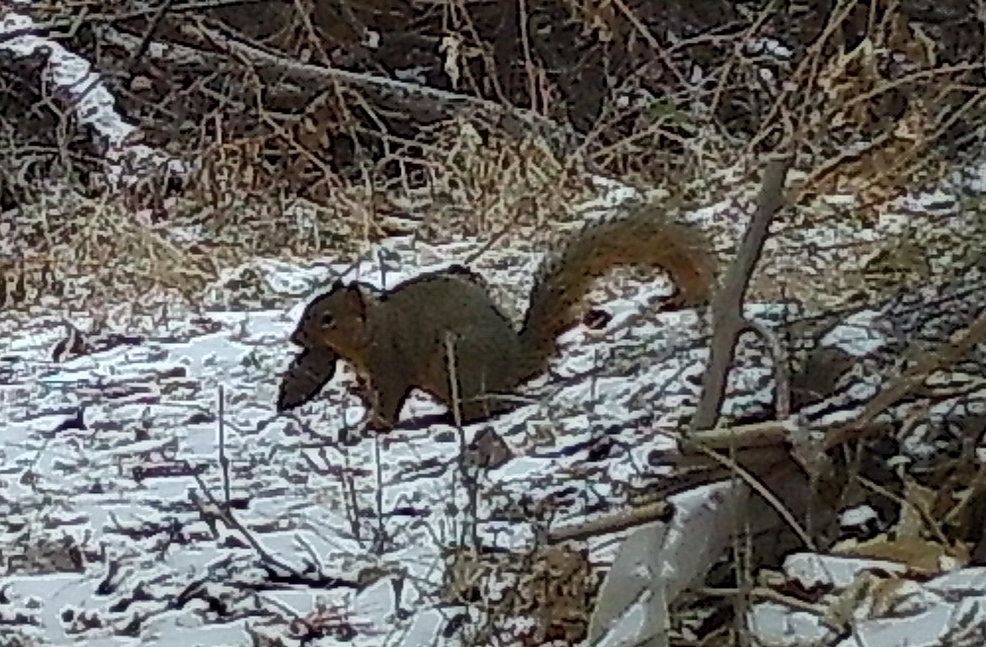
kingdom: Animalia
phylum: Chordata
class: Mammalia
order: Rodentia
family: Sciuridae
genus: Sciurus
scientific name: Sciurus niger
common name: Fox squirrel
